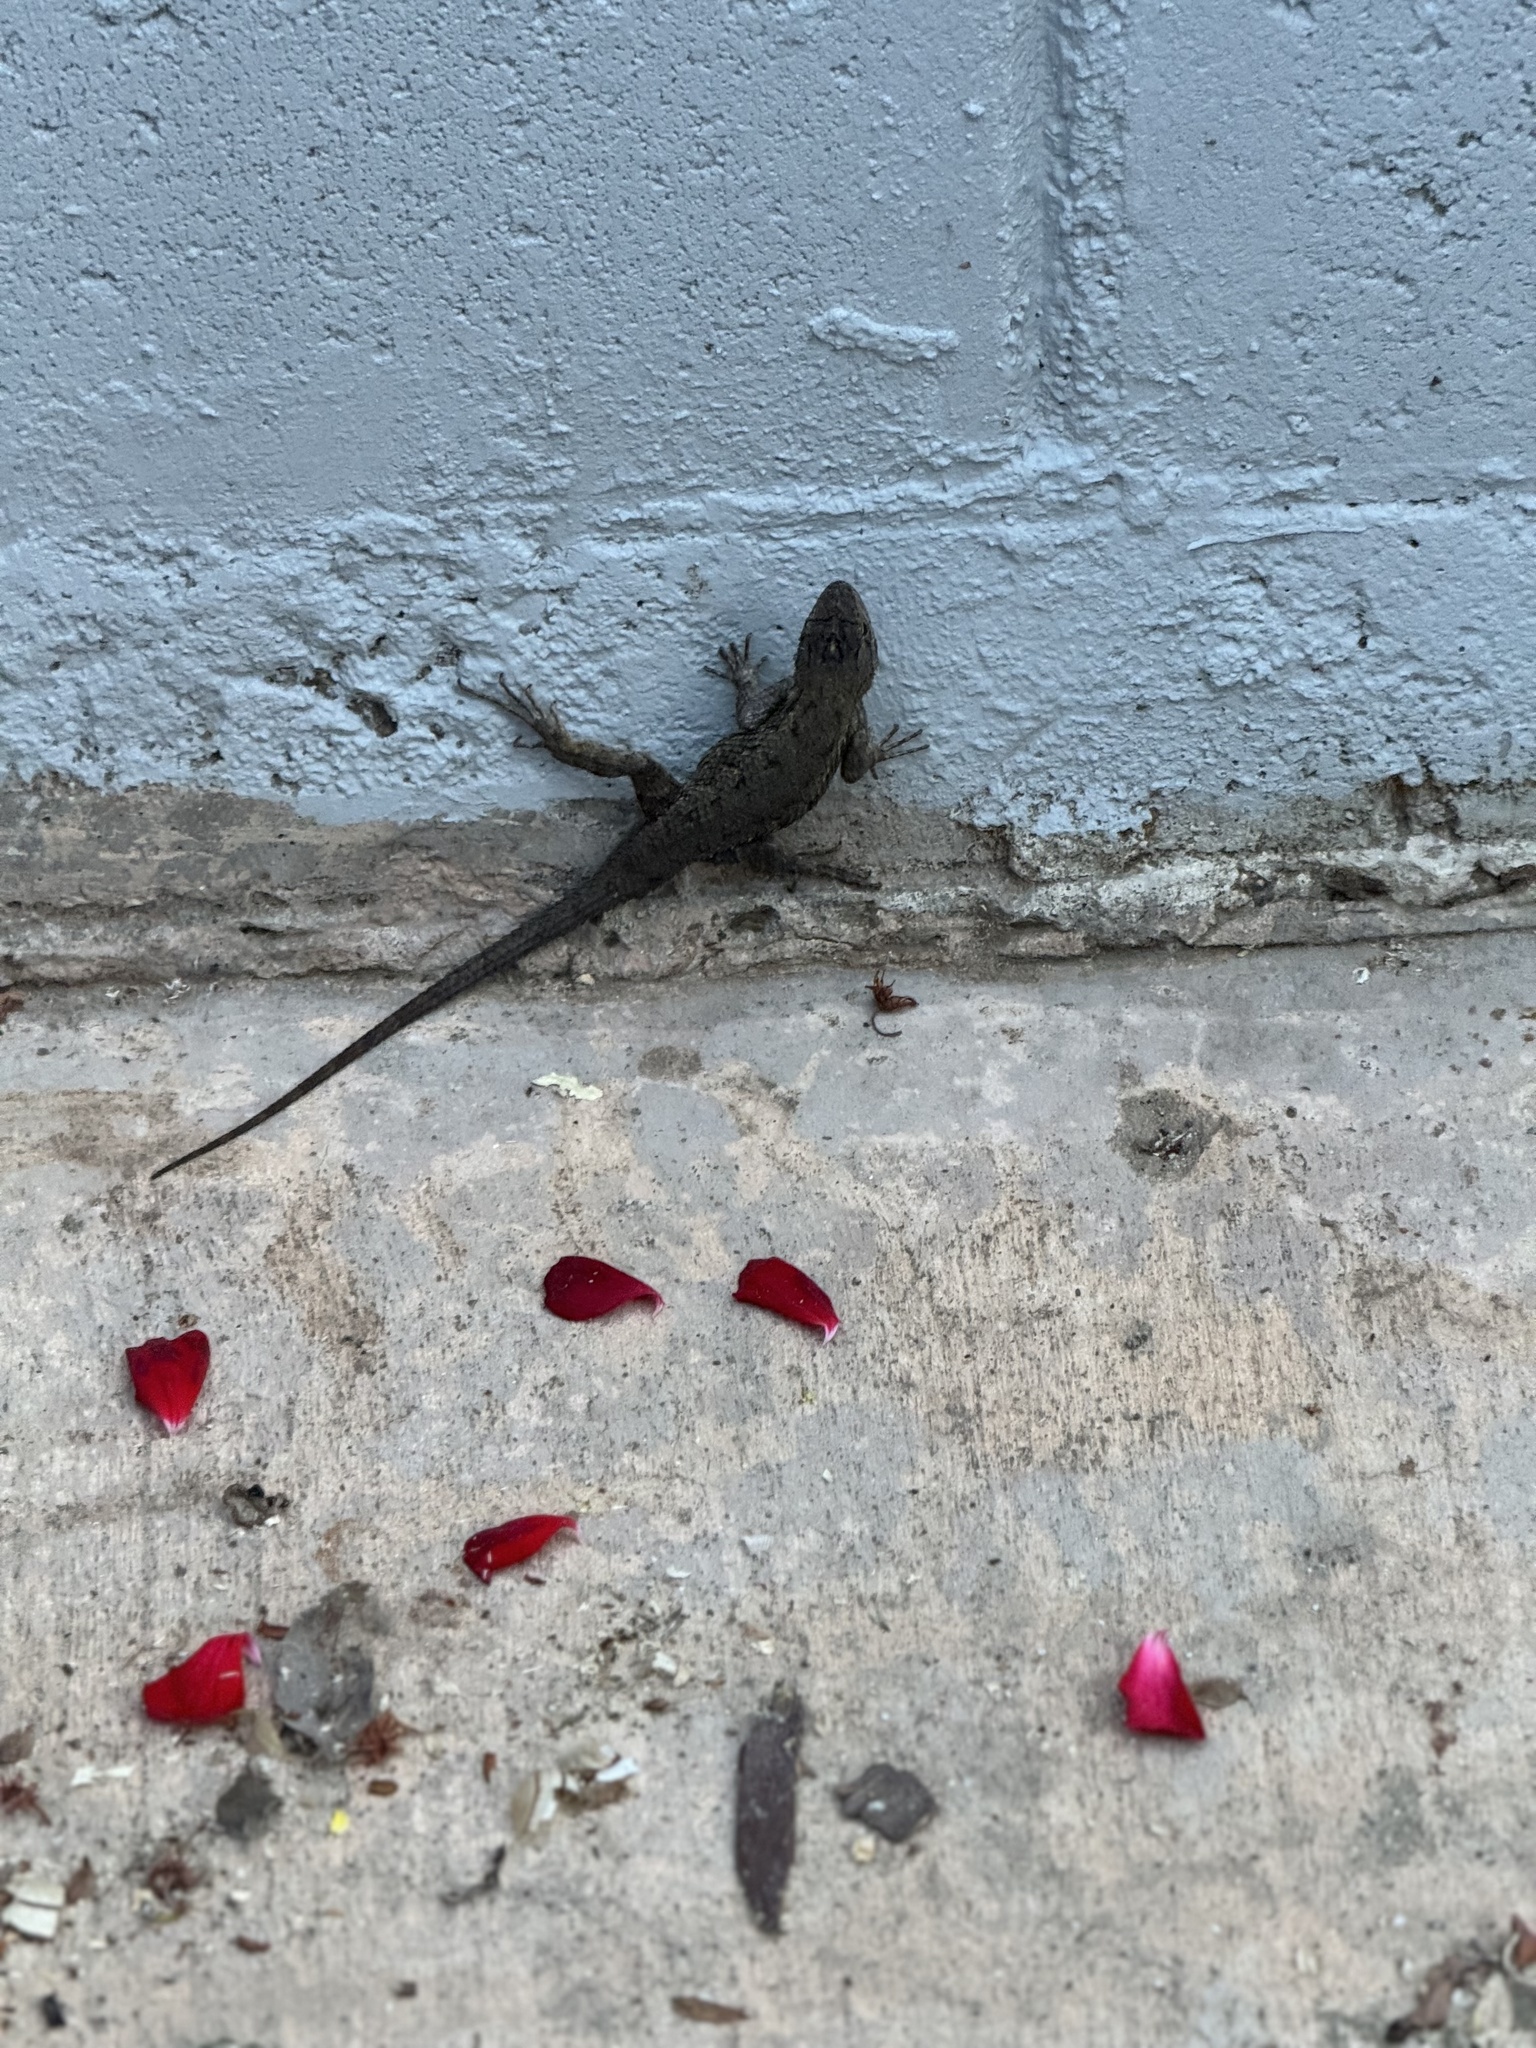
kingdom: Animalia
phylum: Chordata
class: Squamata
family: Phrynosomatidae
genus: Sceloporus
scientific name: Sceloporus occidentalis
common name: Western fence lizard
